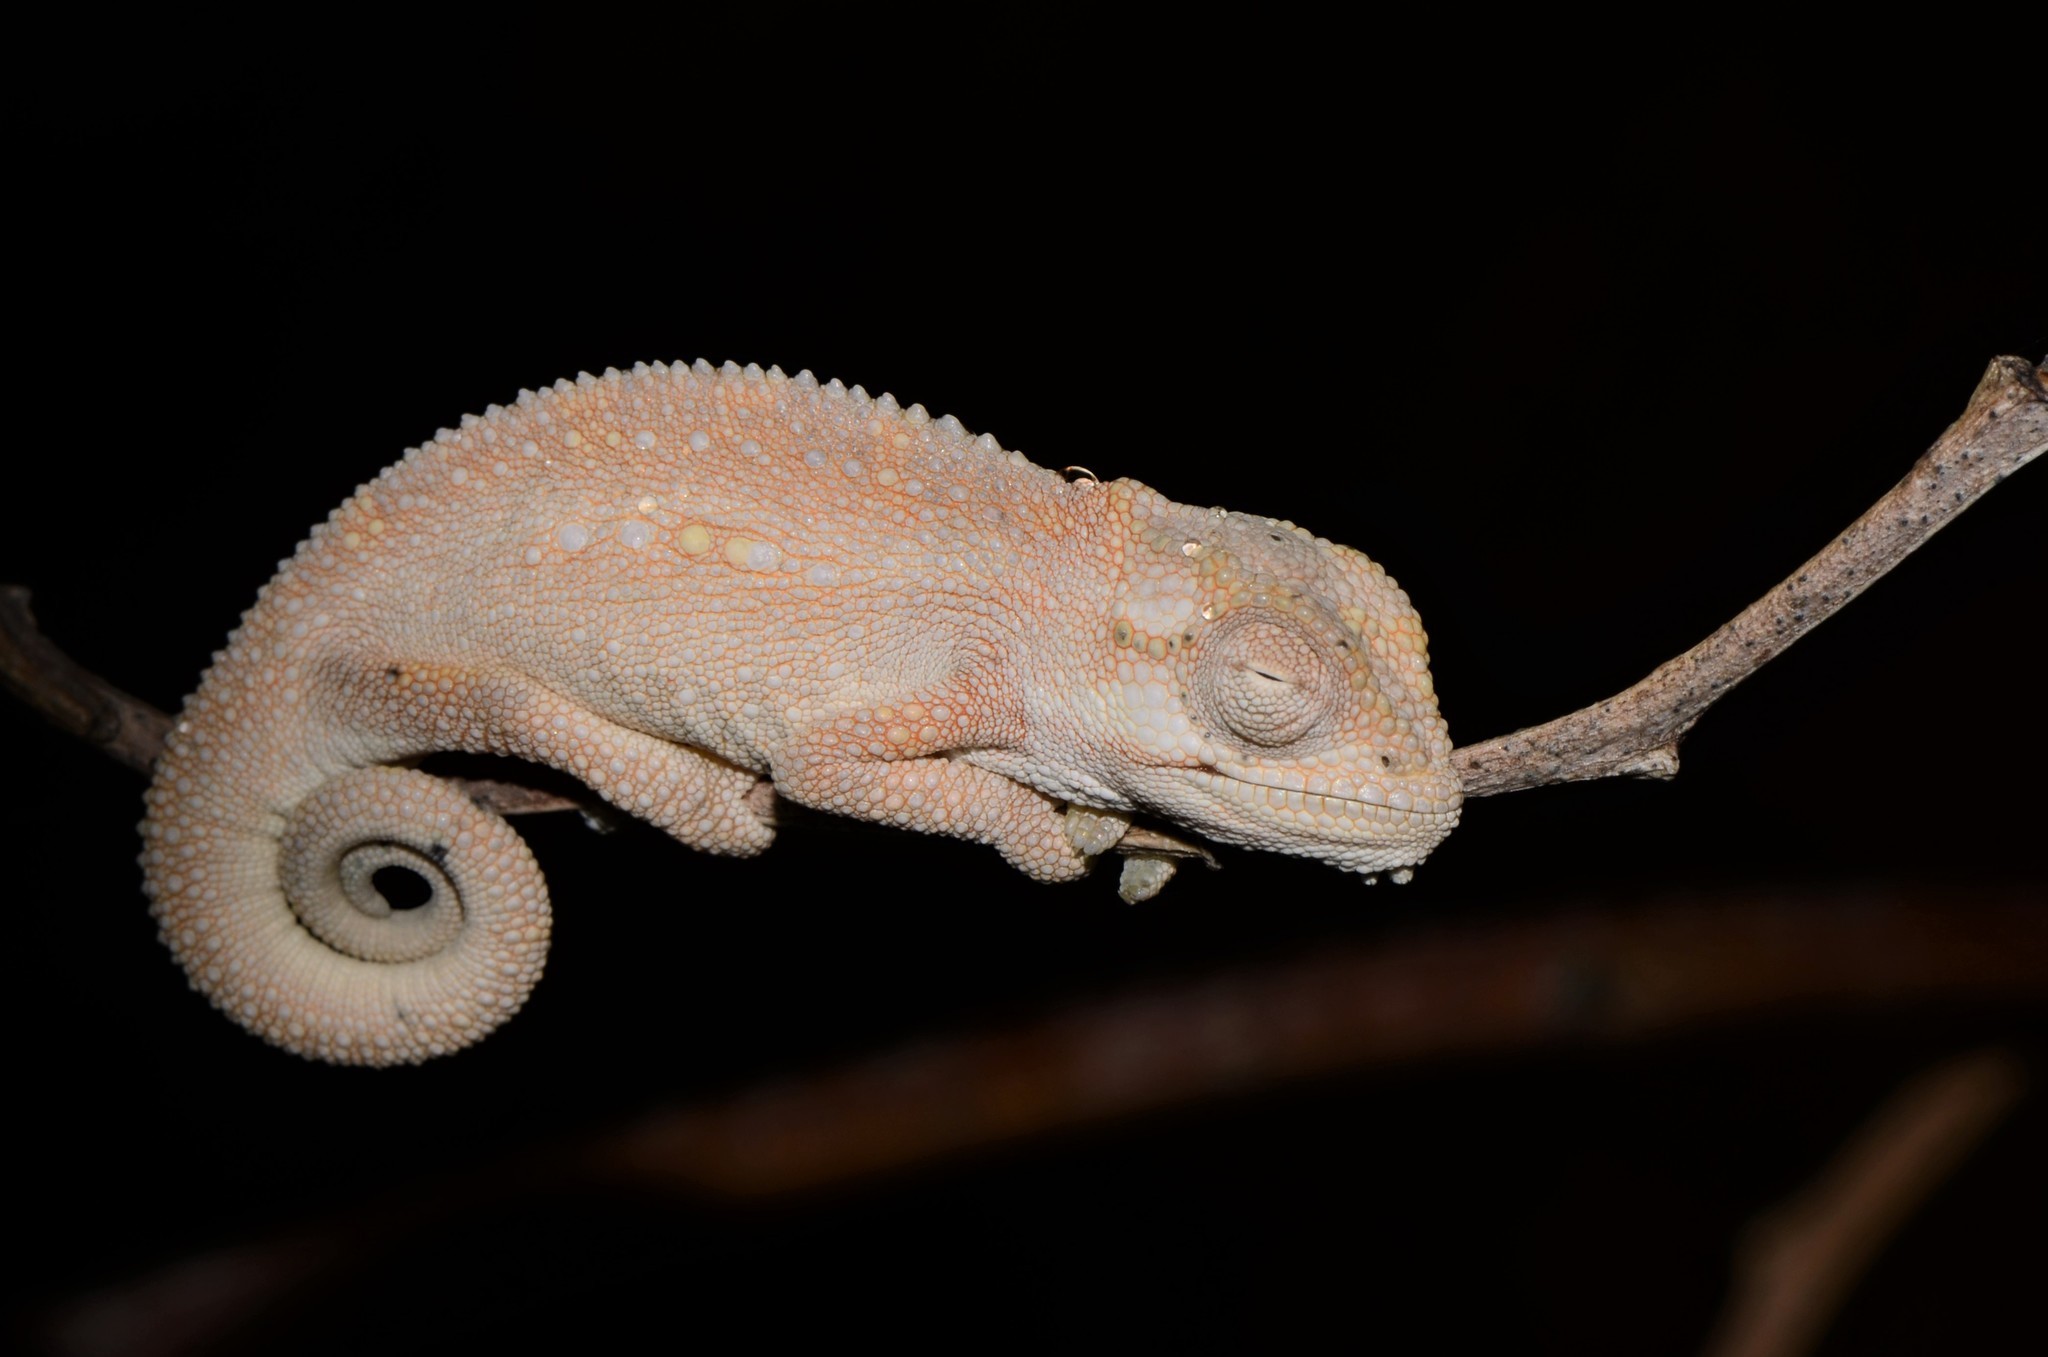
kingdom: Animalia
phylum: Chordata
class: Squamata
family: Chamaeleonidae
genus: Bradypodion
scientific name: Bradypodion pumilum
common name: Cape dwarf chameleon
